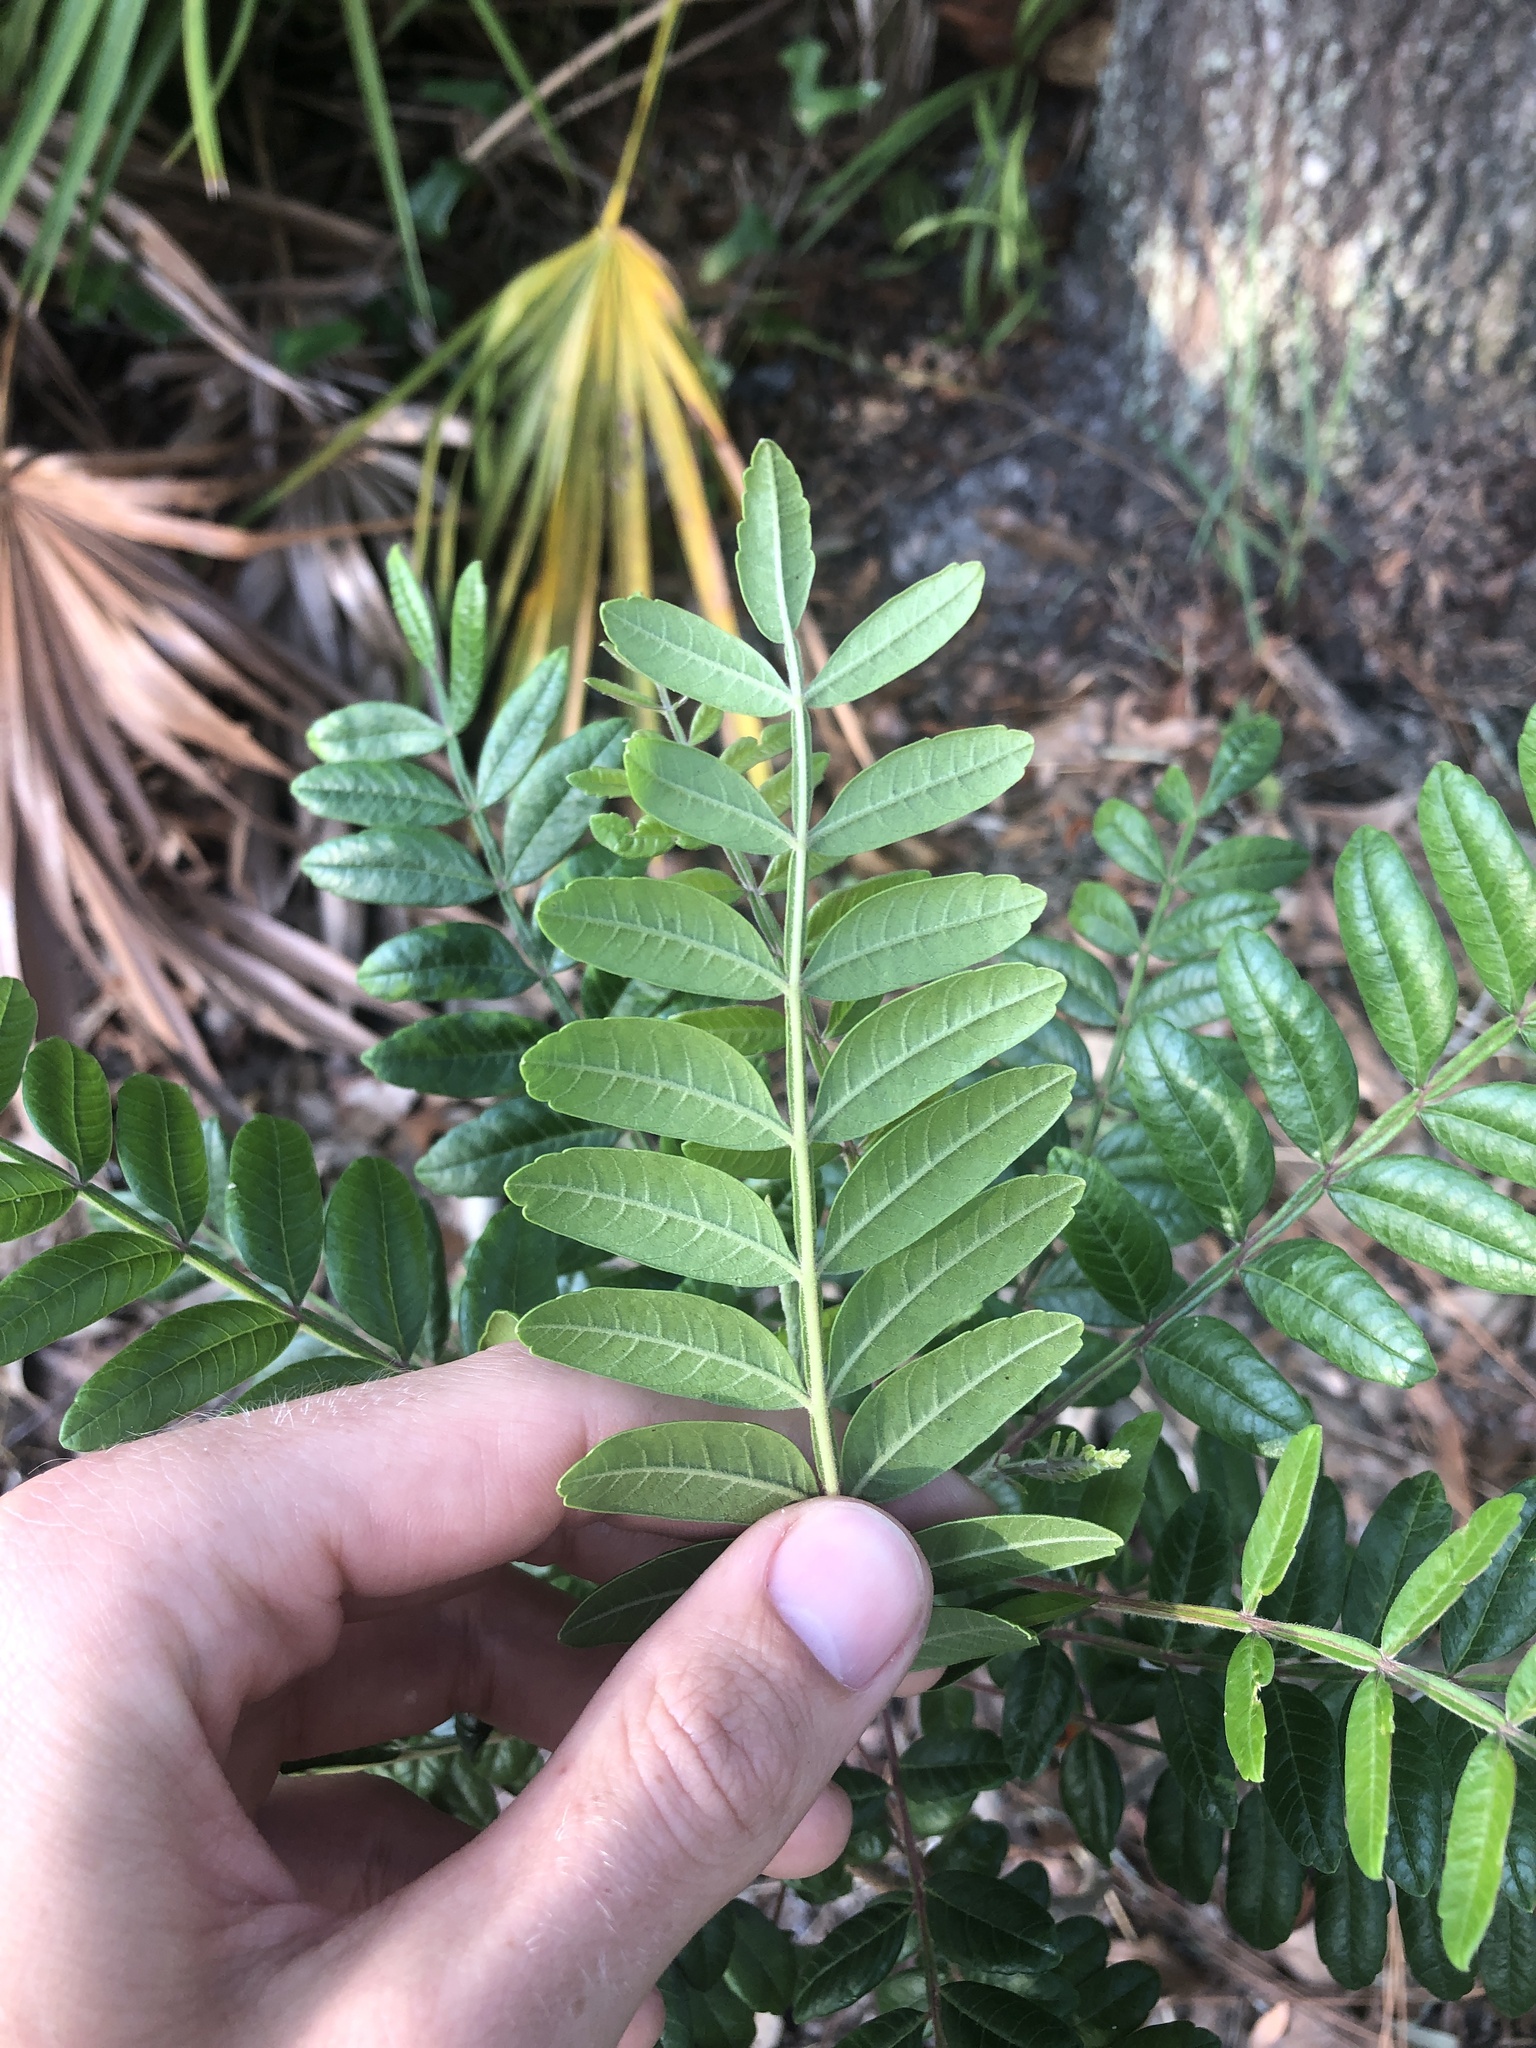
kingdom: Plantae
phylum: Tracheophyta
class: Magnoliopsida
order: Sapindales
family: Anacardiaceae
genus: Rhus
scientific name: Rhus copallina
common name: Shining sumac
